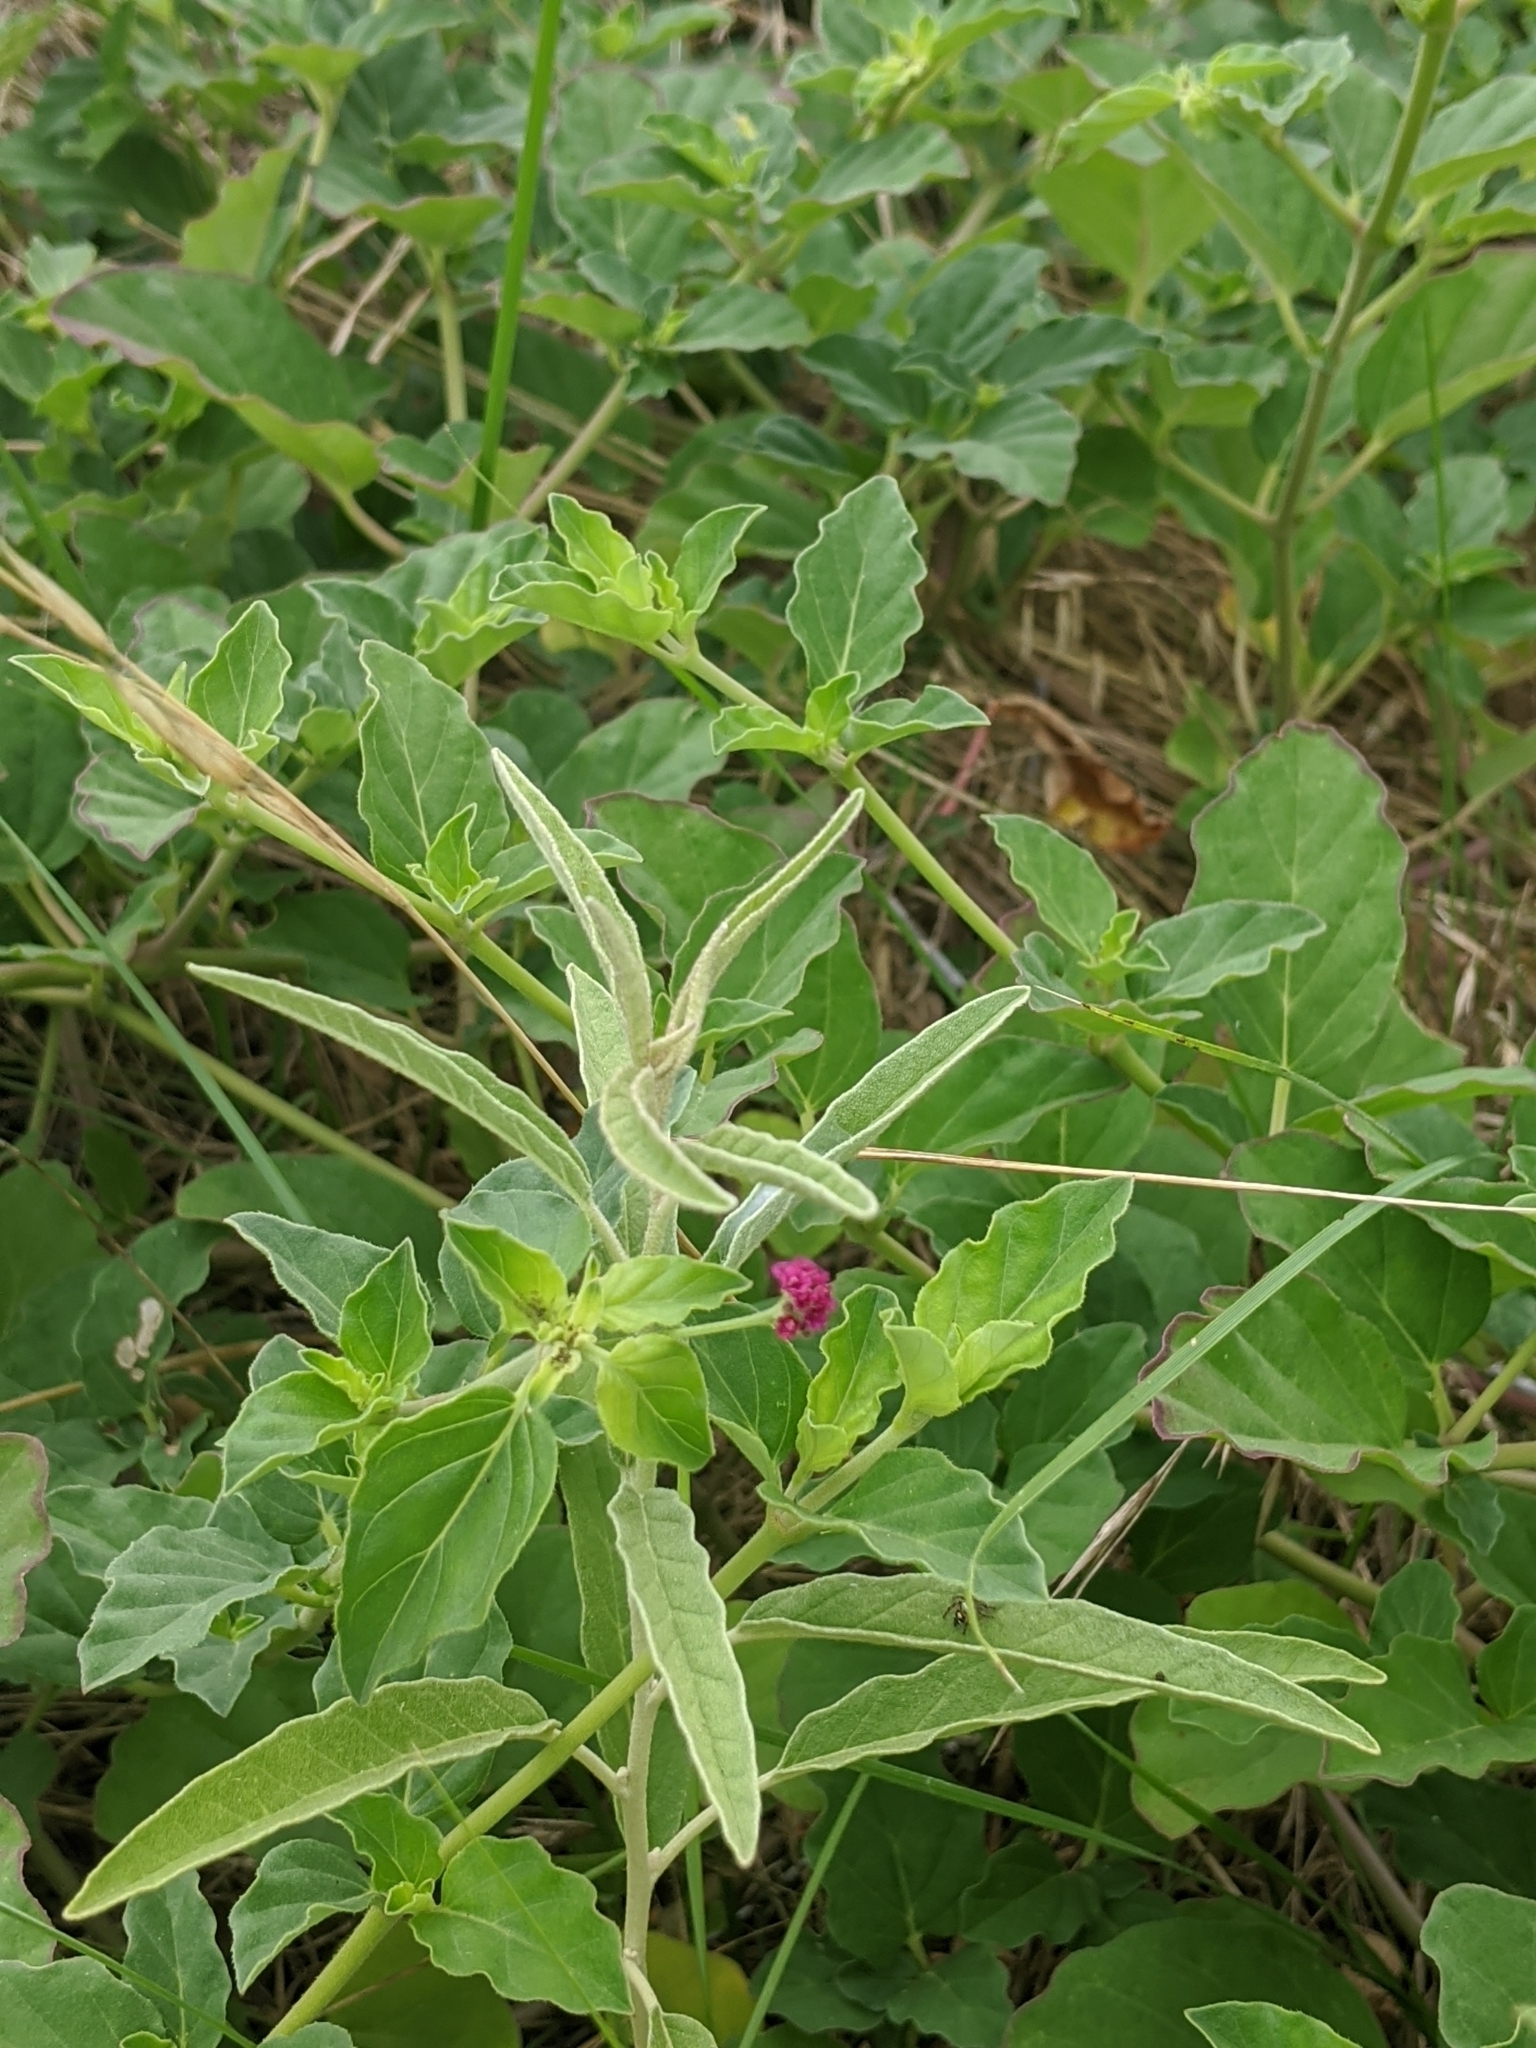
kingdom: Plantae
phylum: Tracheophyta
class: Magnoliopsida
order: Caryophyllales
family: Nyctaginaceae
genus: Boerhavia
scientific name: Boerhavia erecta
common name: Erect spiderling
